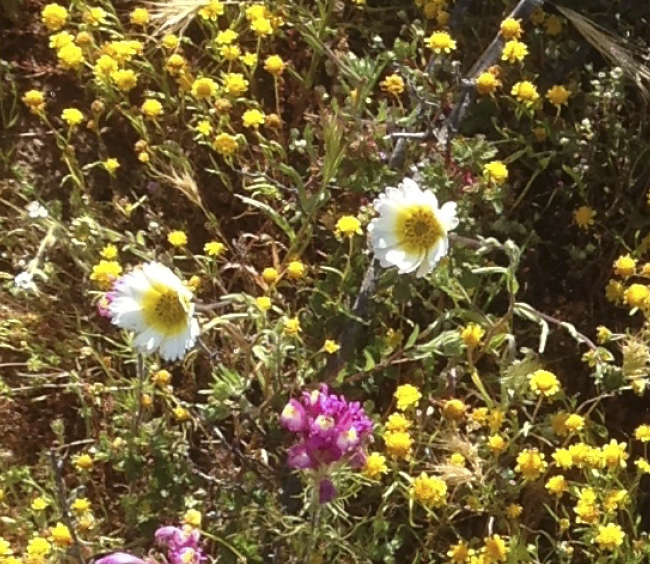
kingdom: Plantae
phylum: Tracheophyta
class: Magnoliopsida
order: Asterales
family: Asteraceae
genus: Layia
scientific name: Layia platyglossa
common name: Tidy-tips
